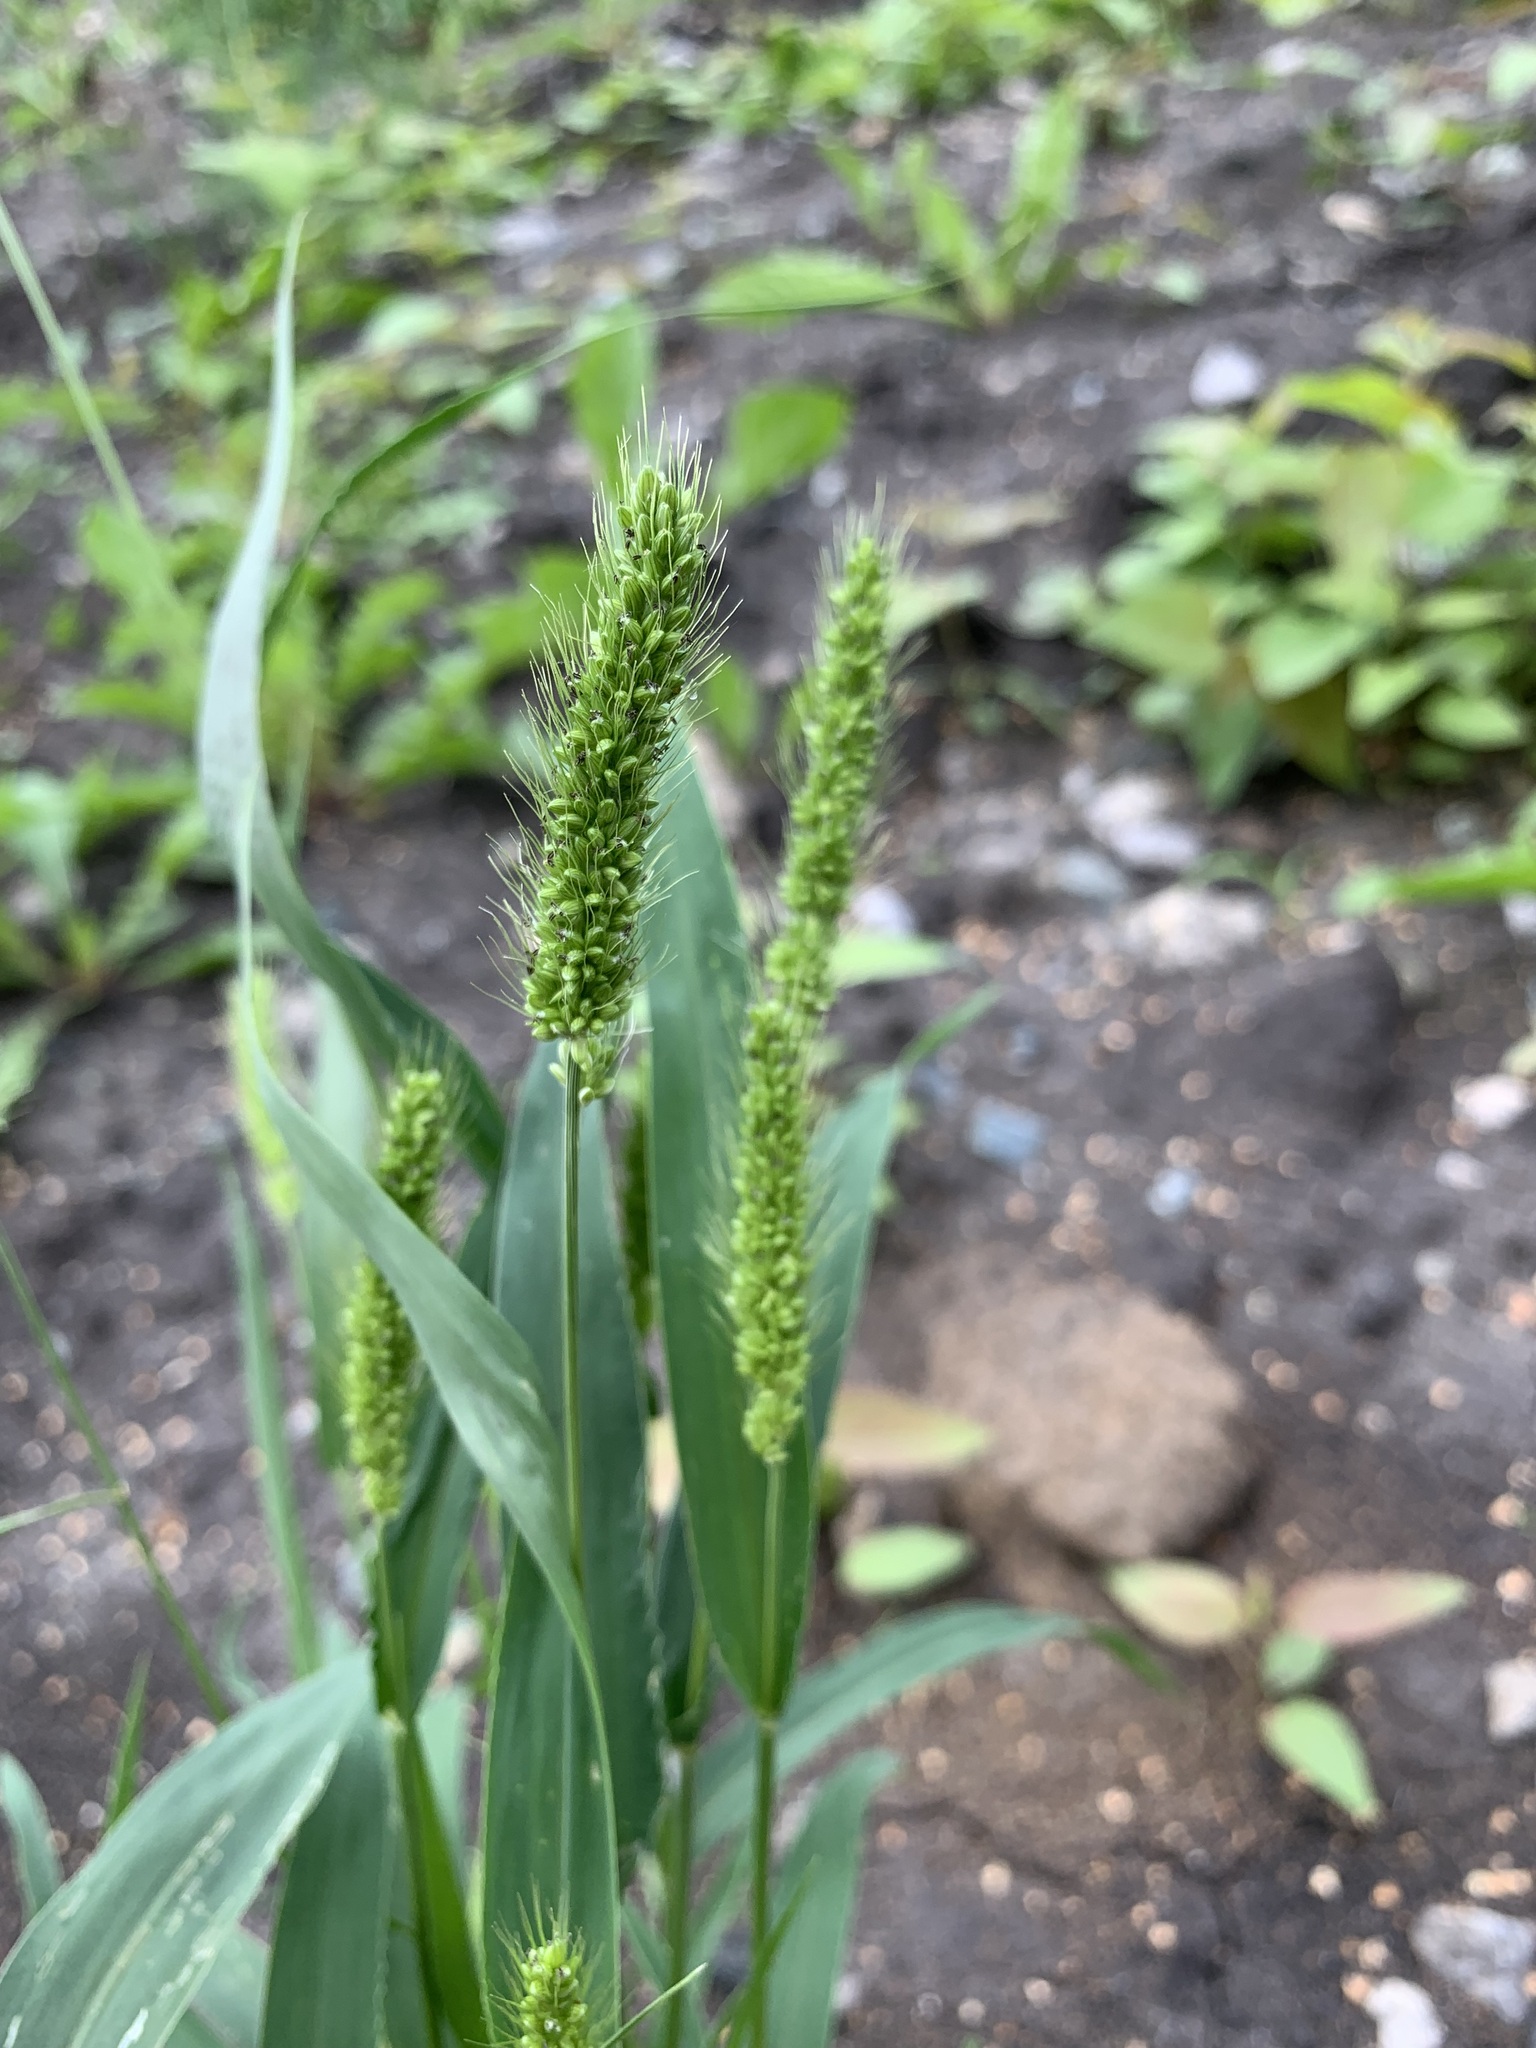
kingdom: Plantae
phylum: Tracheophyta
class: Liliopsida
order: Poales
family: Poaceae
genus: Setaria
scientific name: Setaria viridis
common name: Green bristlegrass
